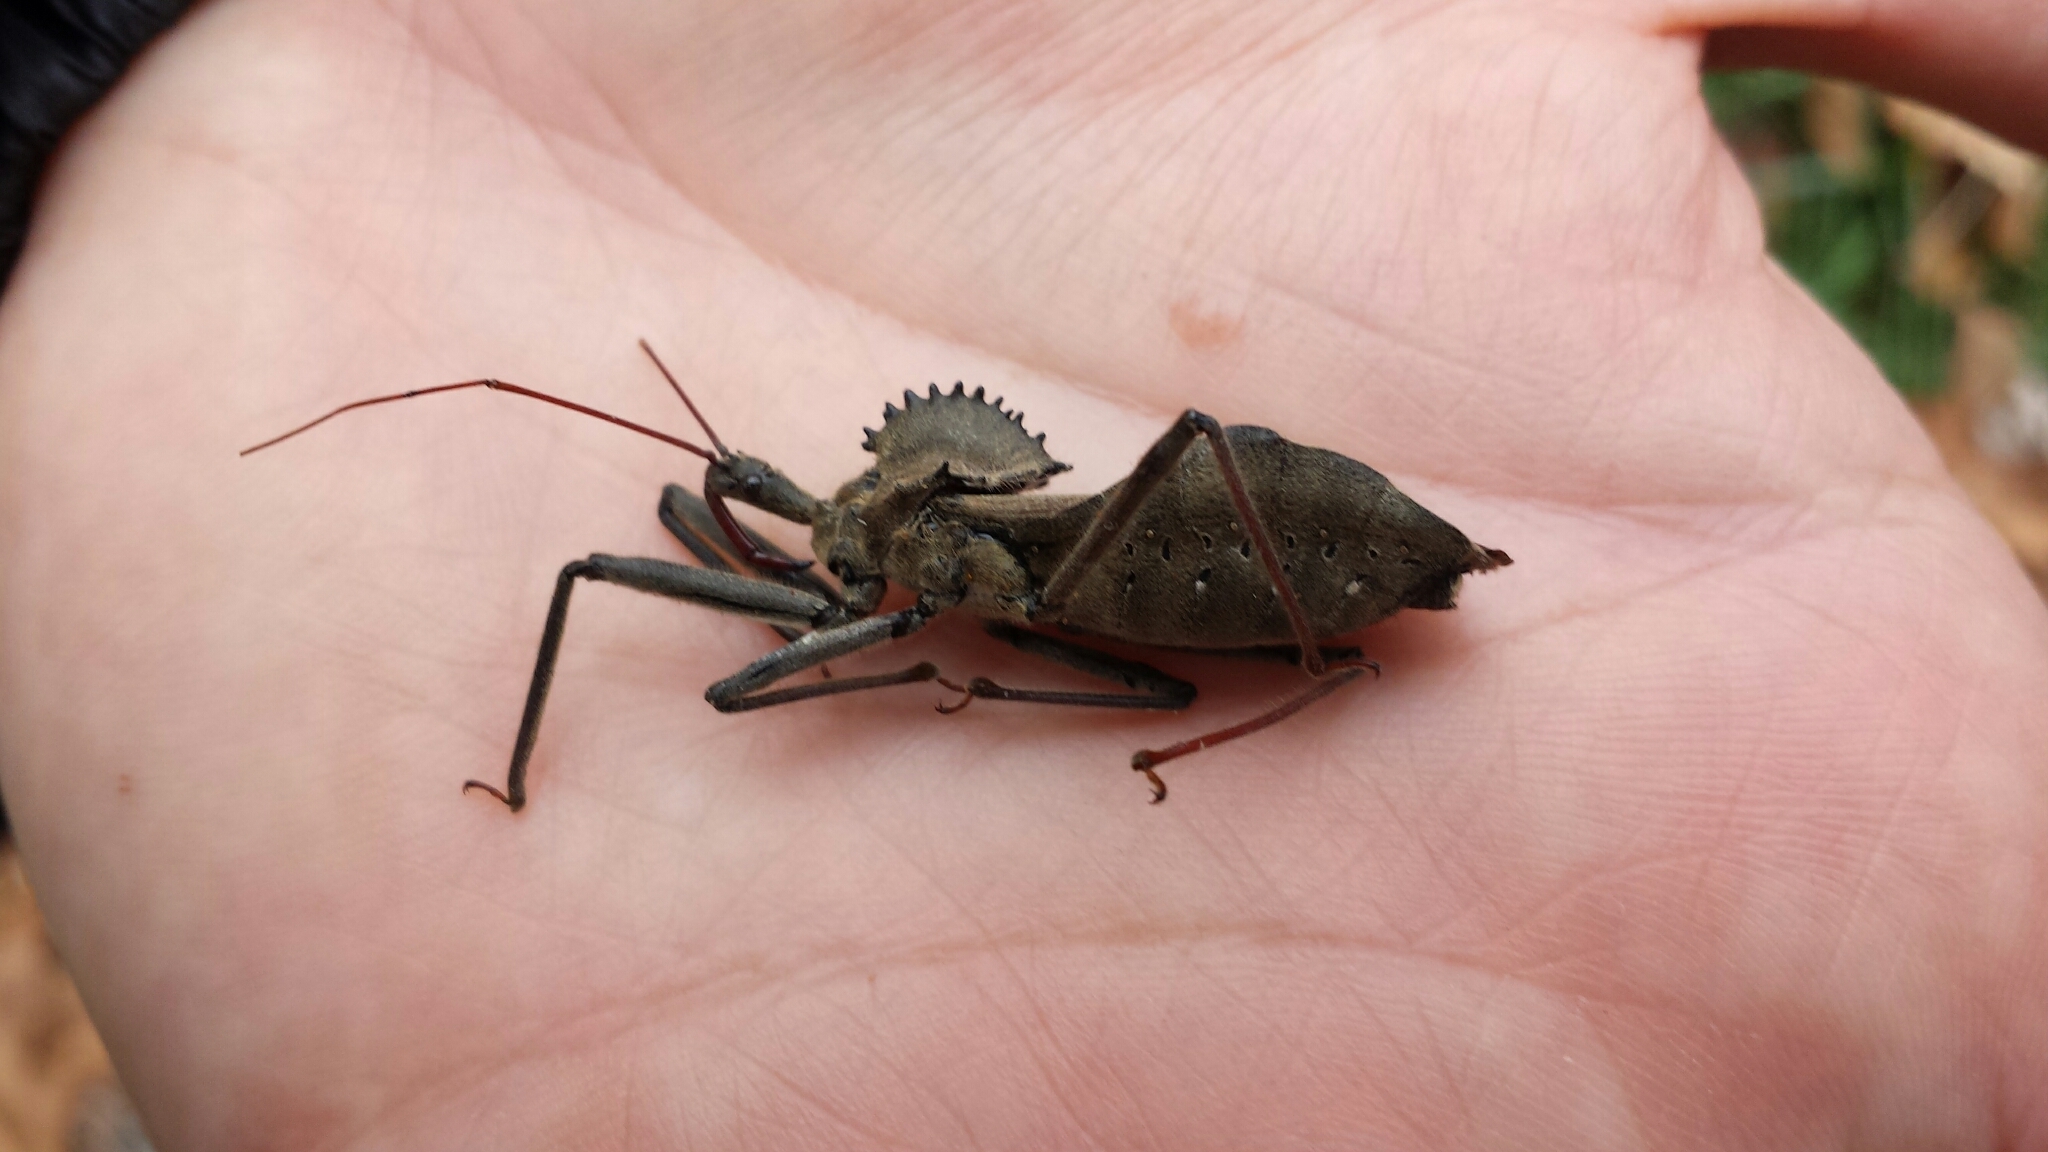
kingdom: Animalia
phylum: Arthropoda
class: Insecta
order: Hemiptera
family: Reduviidae
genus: Arilus
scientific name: Arilus cristatus
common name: North american wheel bug
